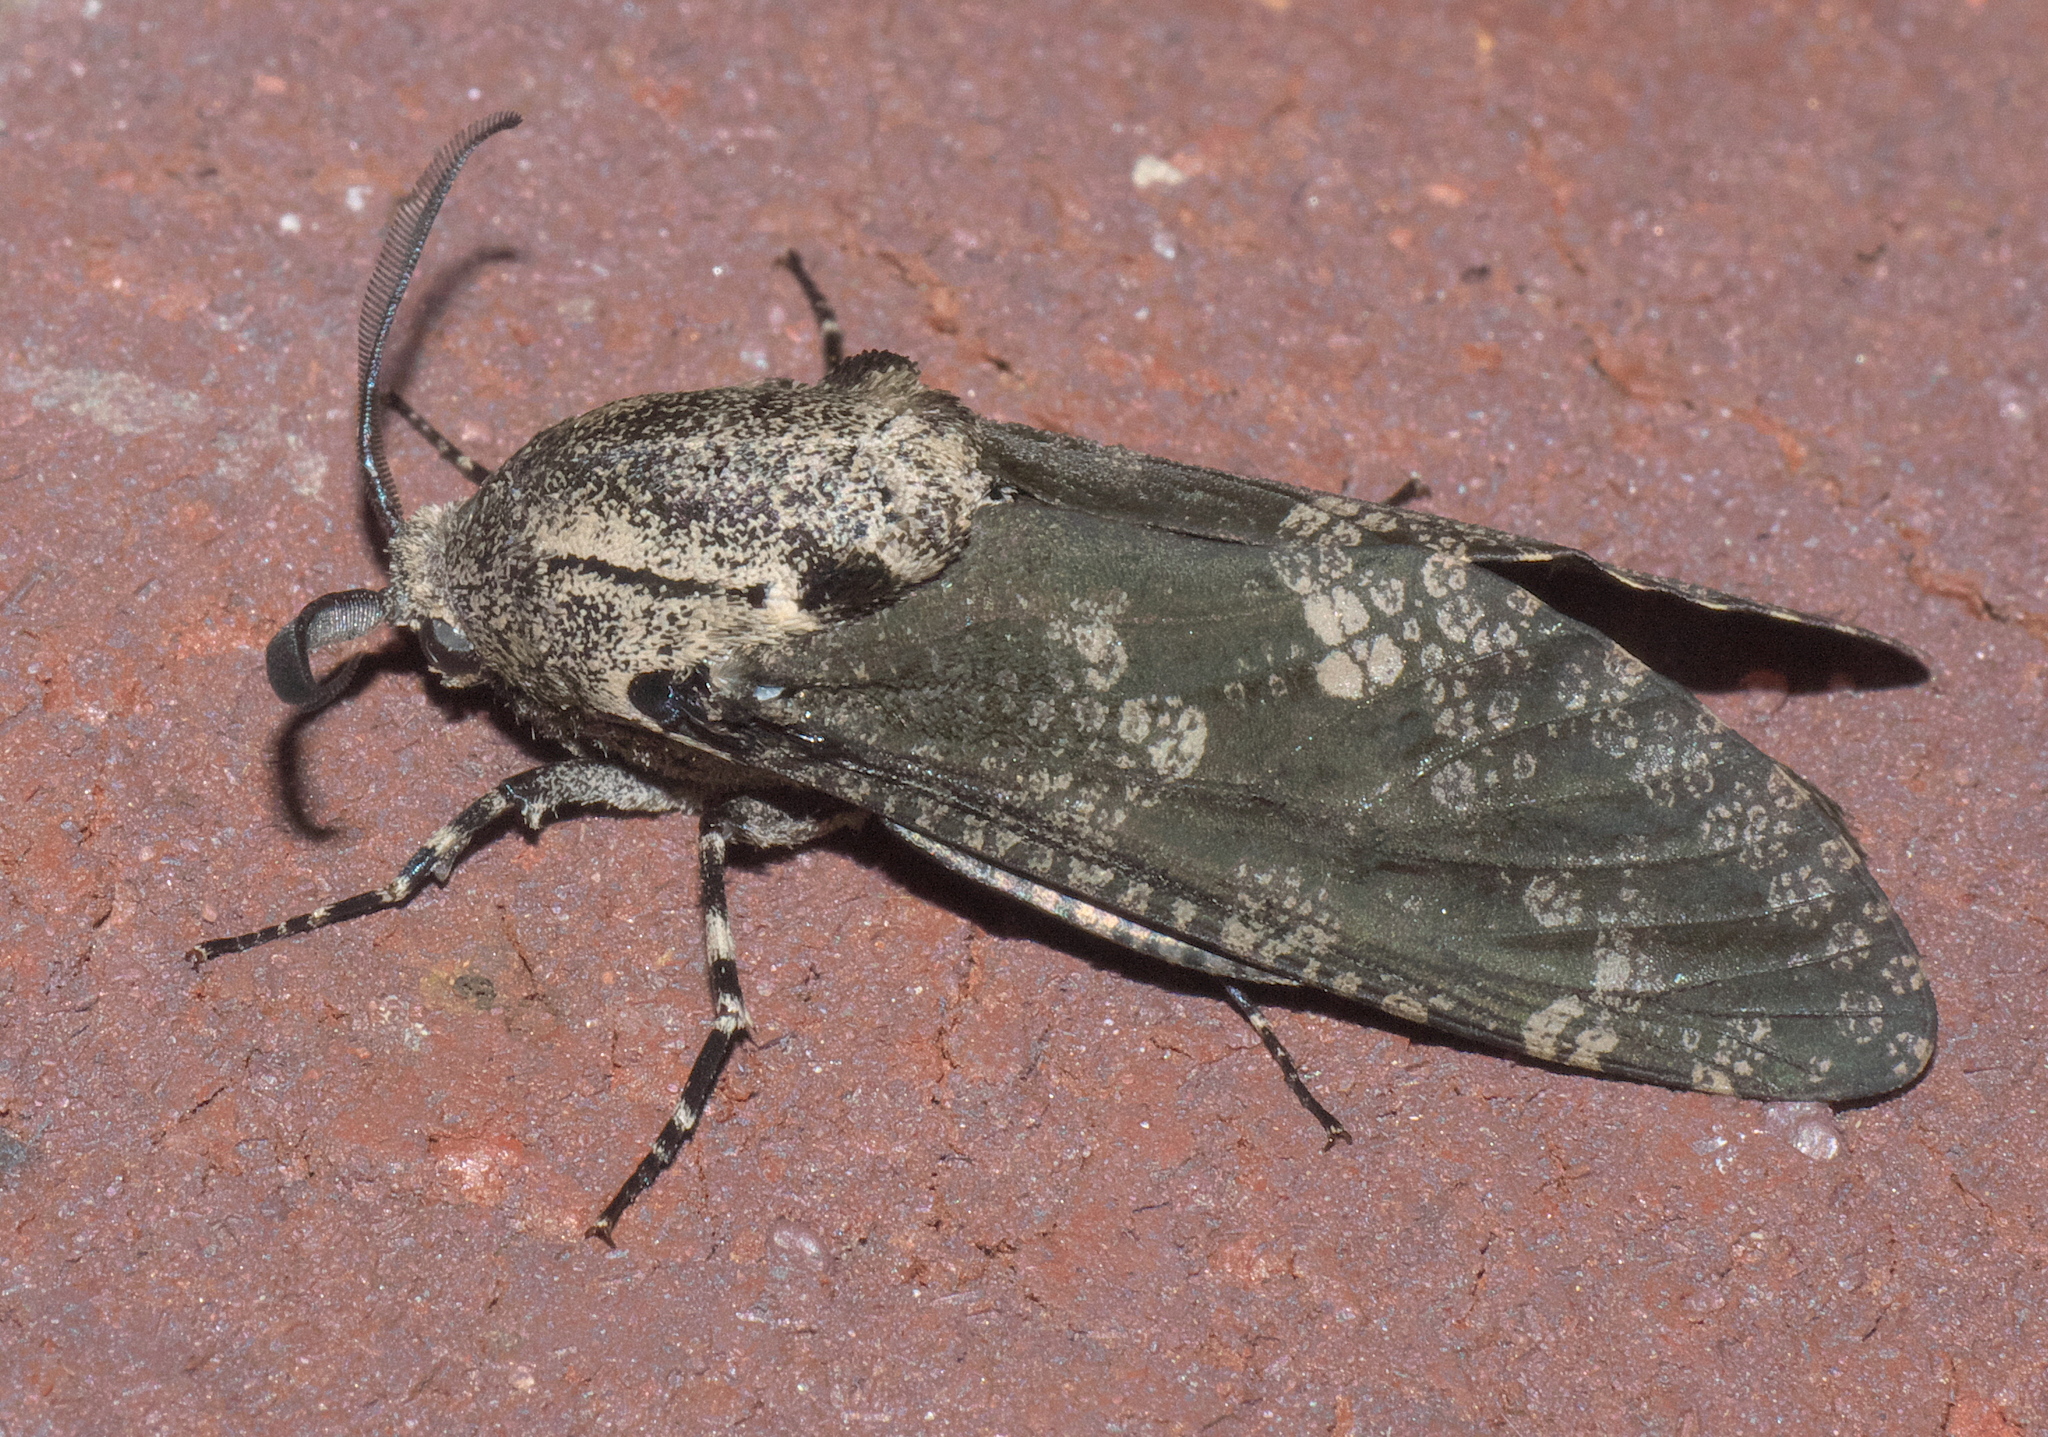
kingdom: Animalia
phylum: Arthropoda
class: Insecta
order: Lepidoptera
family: Cossidae
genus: Prionoxystus
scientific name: Prionoxystus robiniae
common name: Carpenterworm
